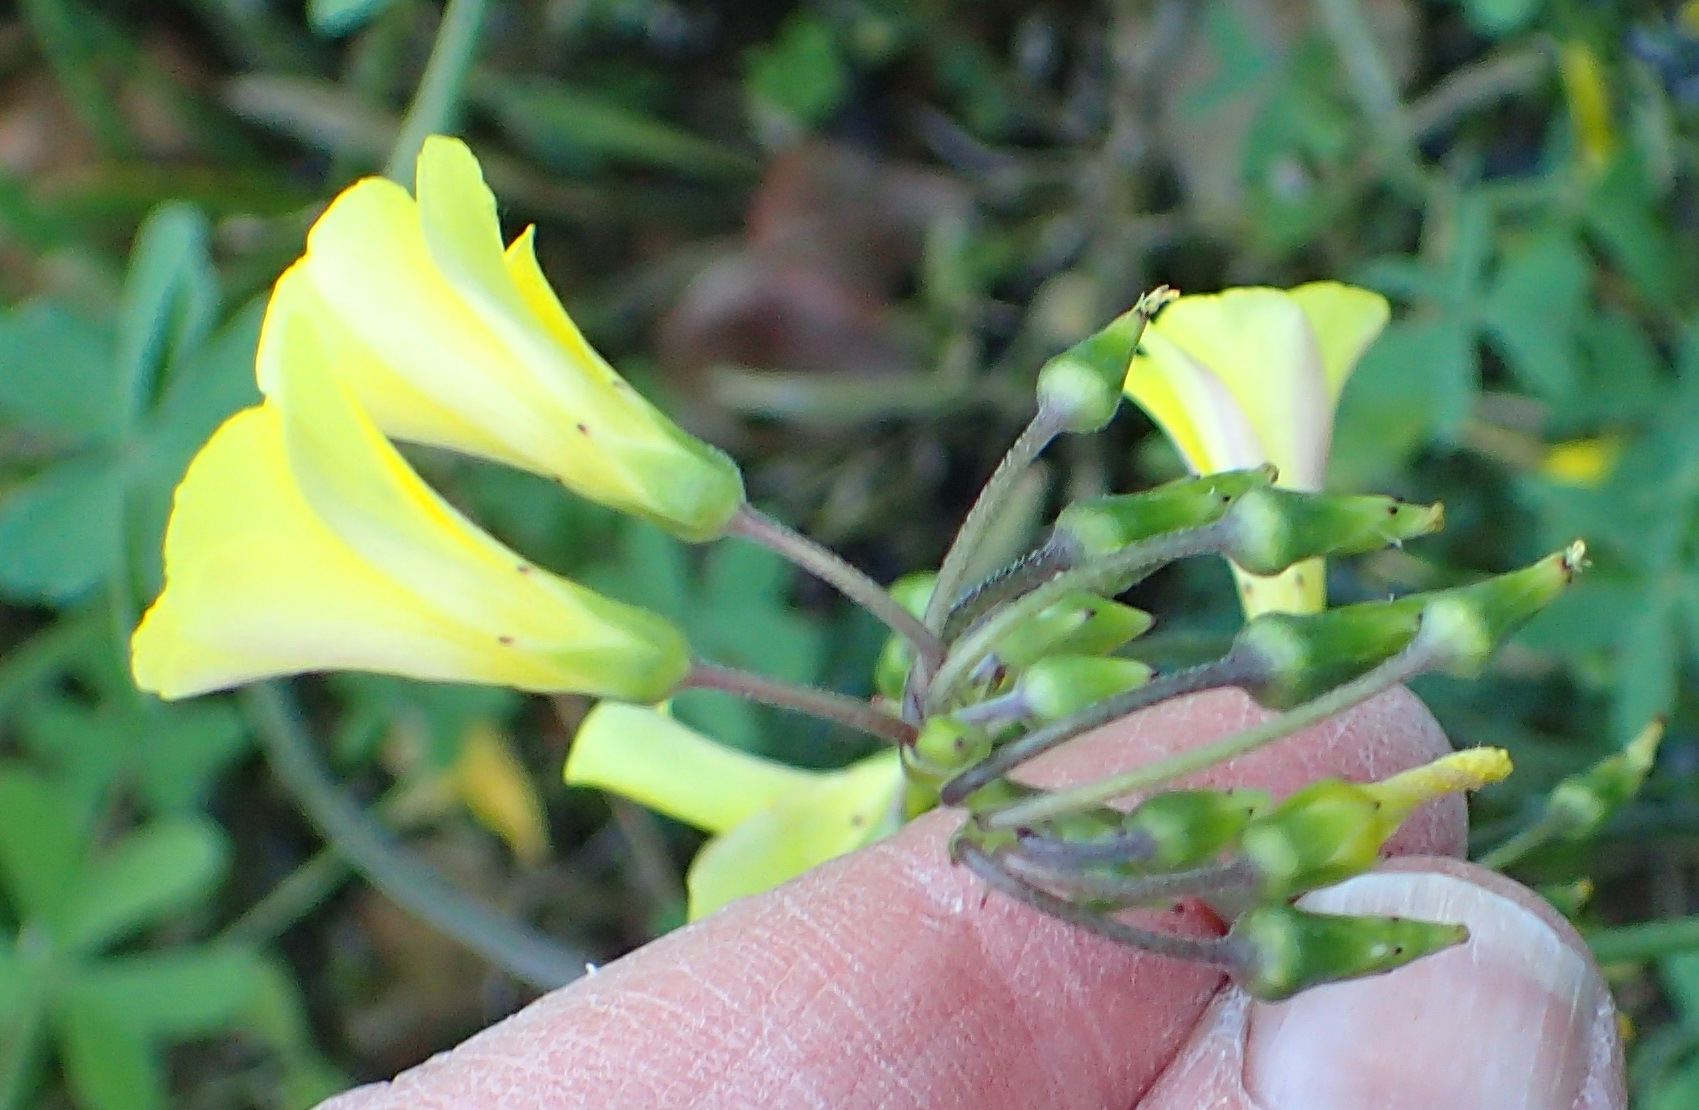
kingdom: Plantae
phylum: Tracheophyta
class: Magnoliopsida
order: Oxalidales
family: Oxalidaceae
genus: Oxalis
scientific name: Oxalis pes-caprae
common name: Bermuda-buttercup
